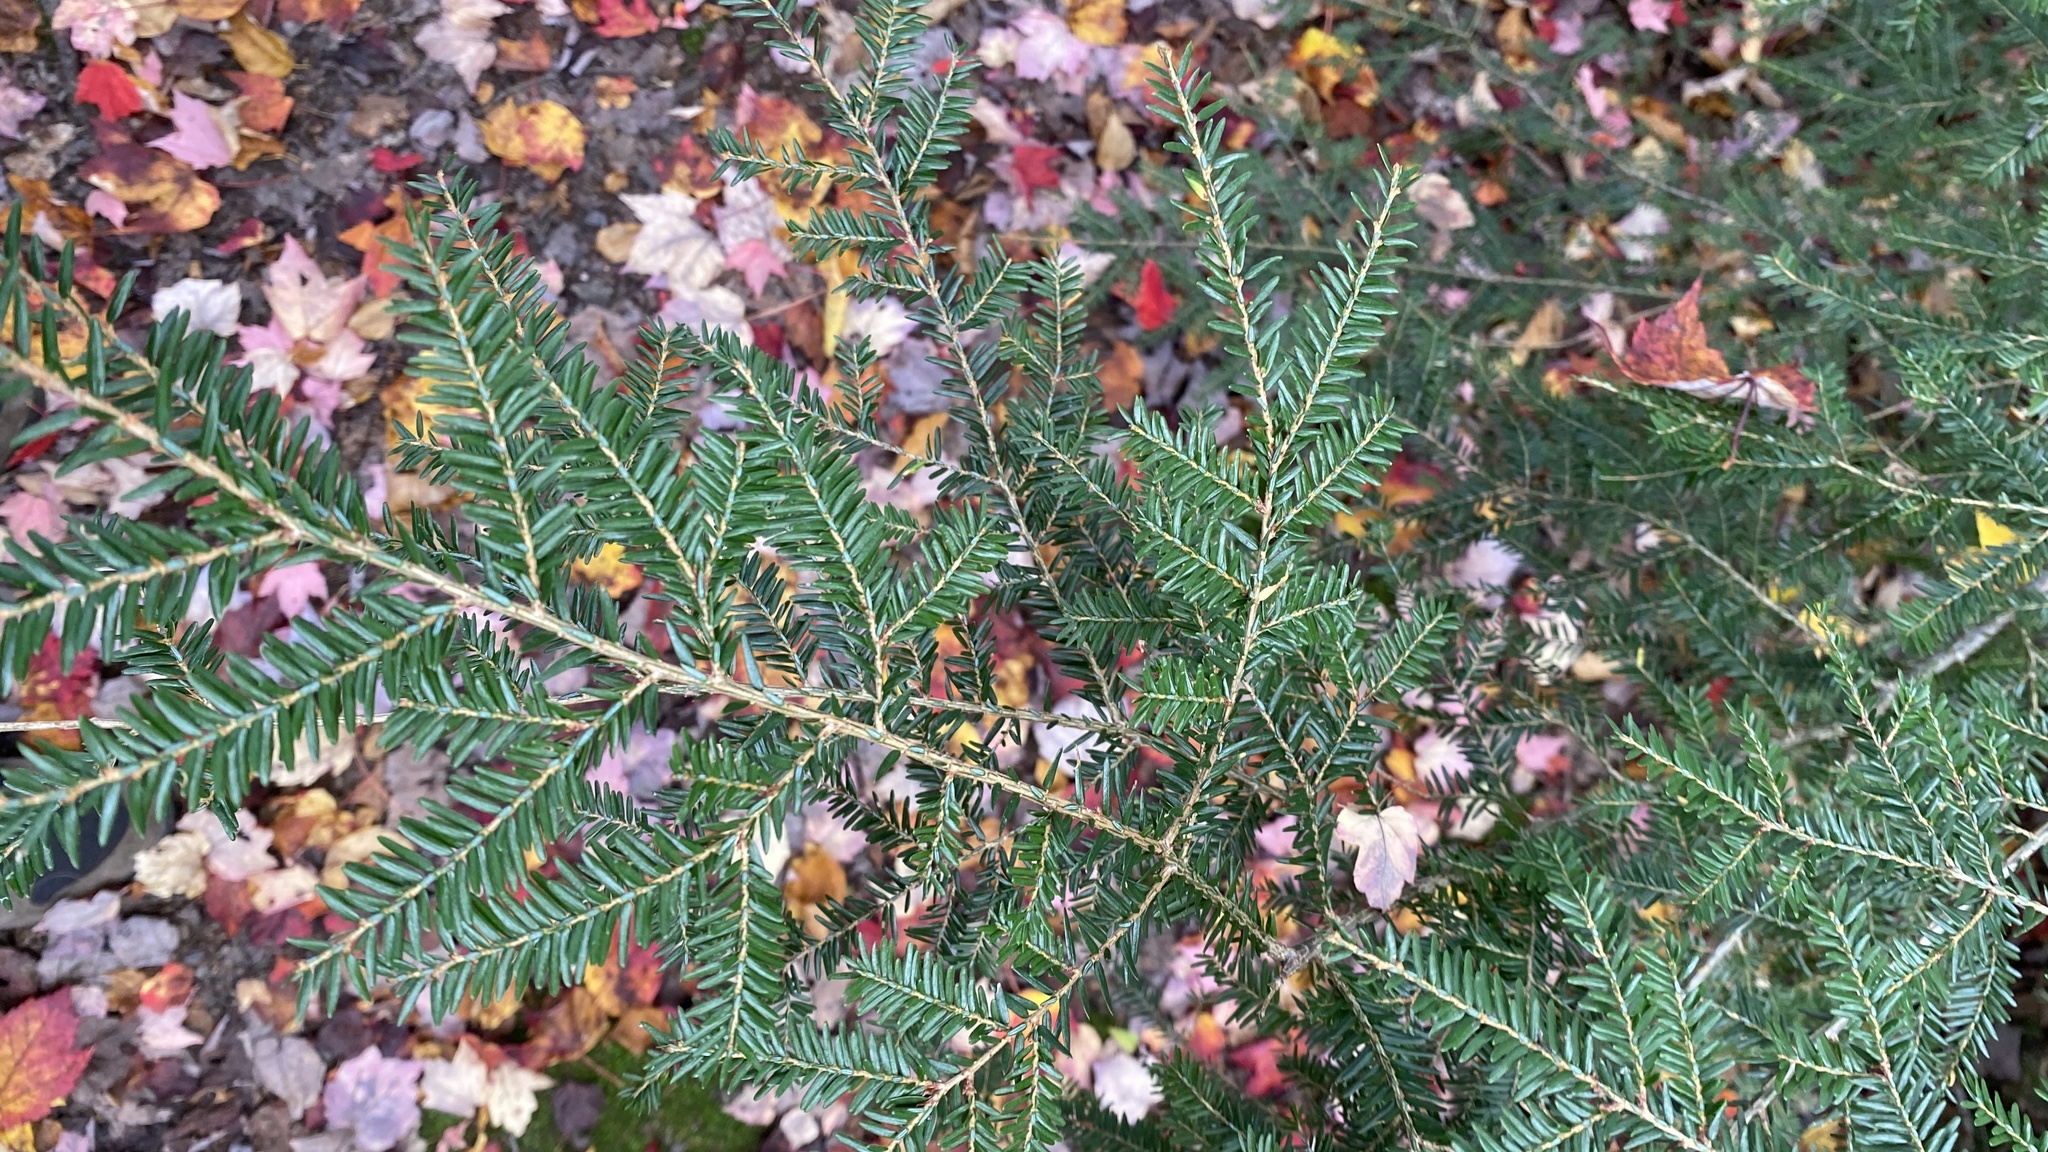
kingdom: Plantae
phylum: Tracheophyta
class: Pinopsida
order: Pinales
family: Pinaceae
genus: Tsuga
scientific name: Tsuga canadensis
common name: Eastern hemlock
